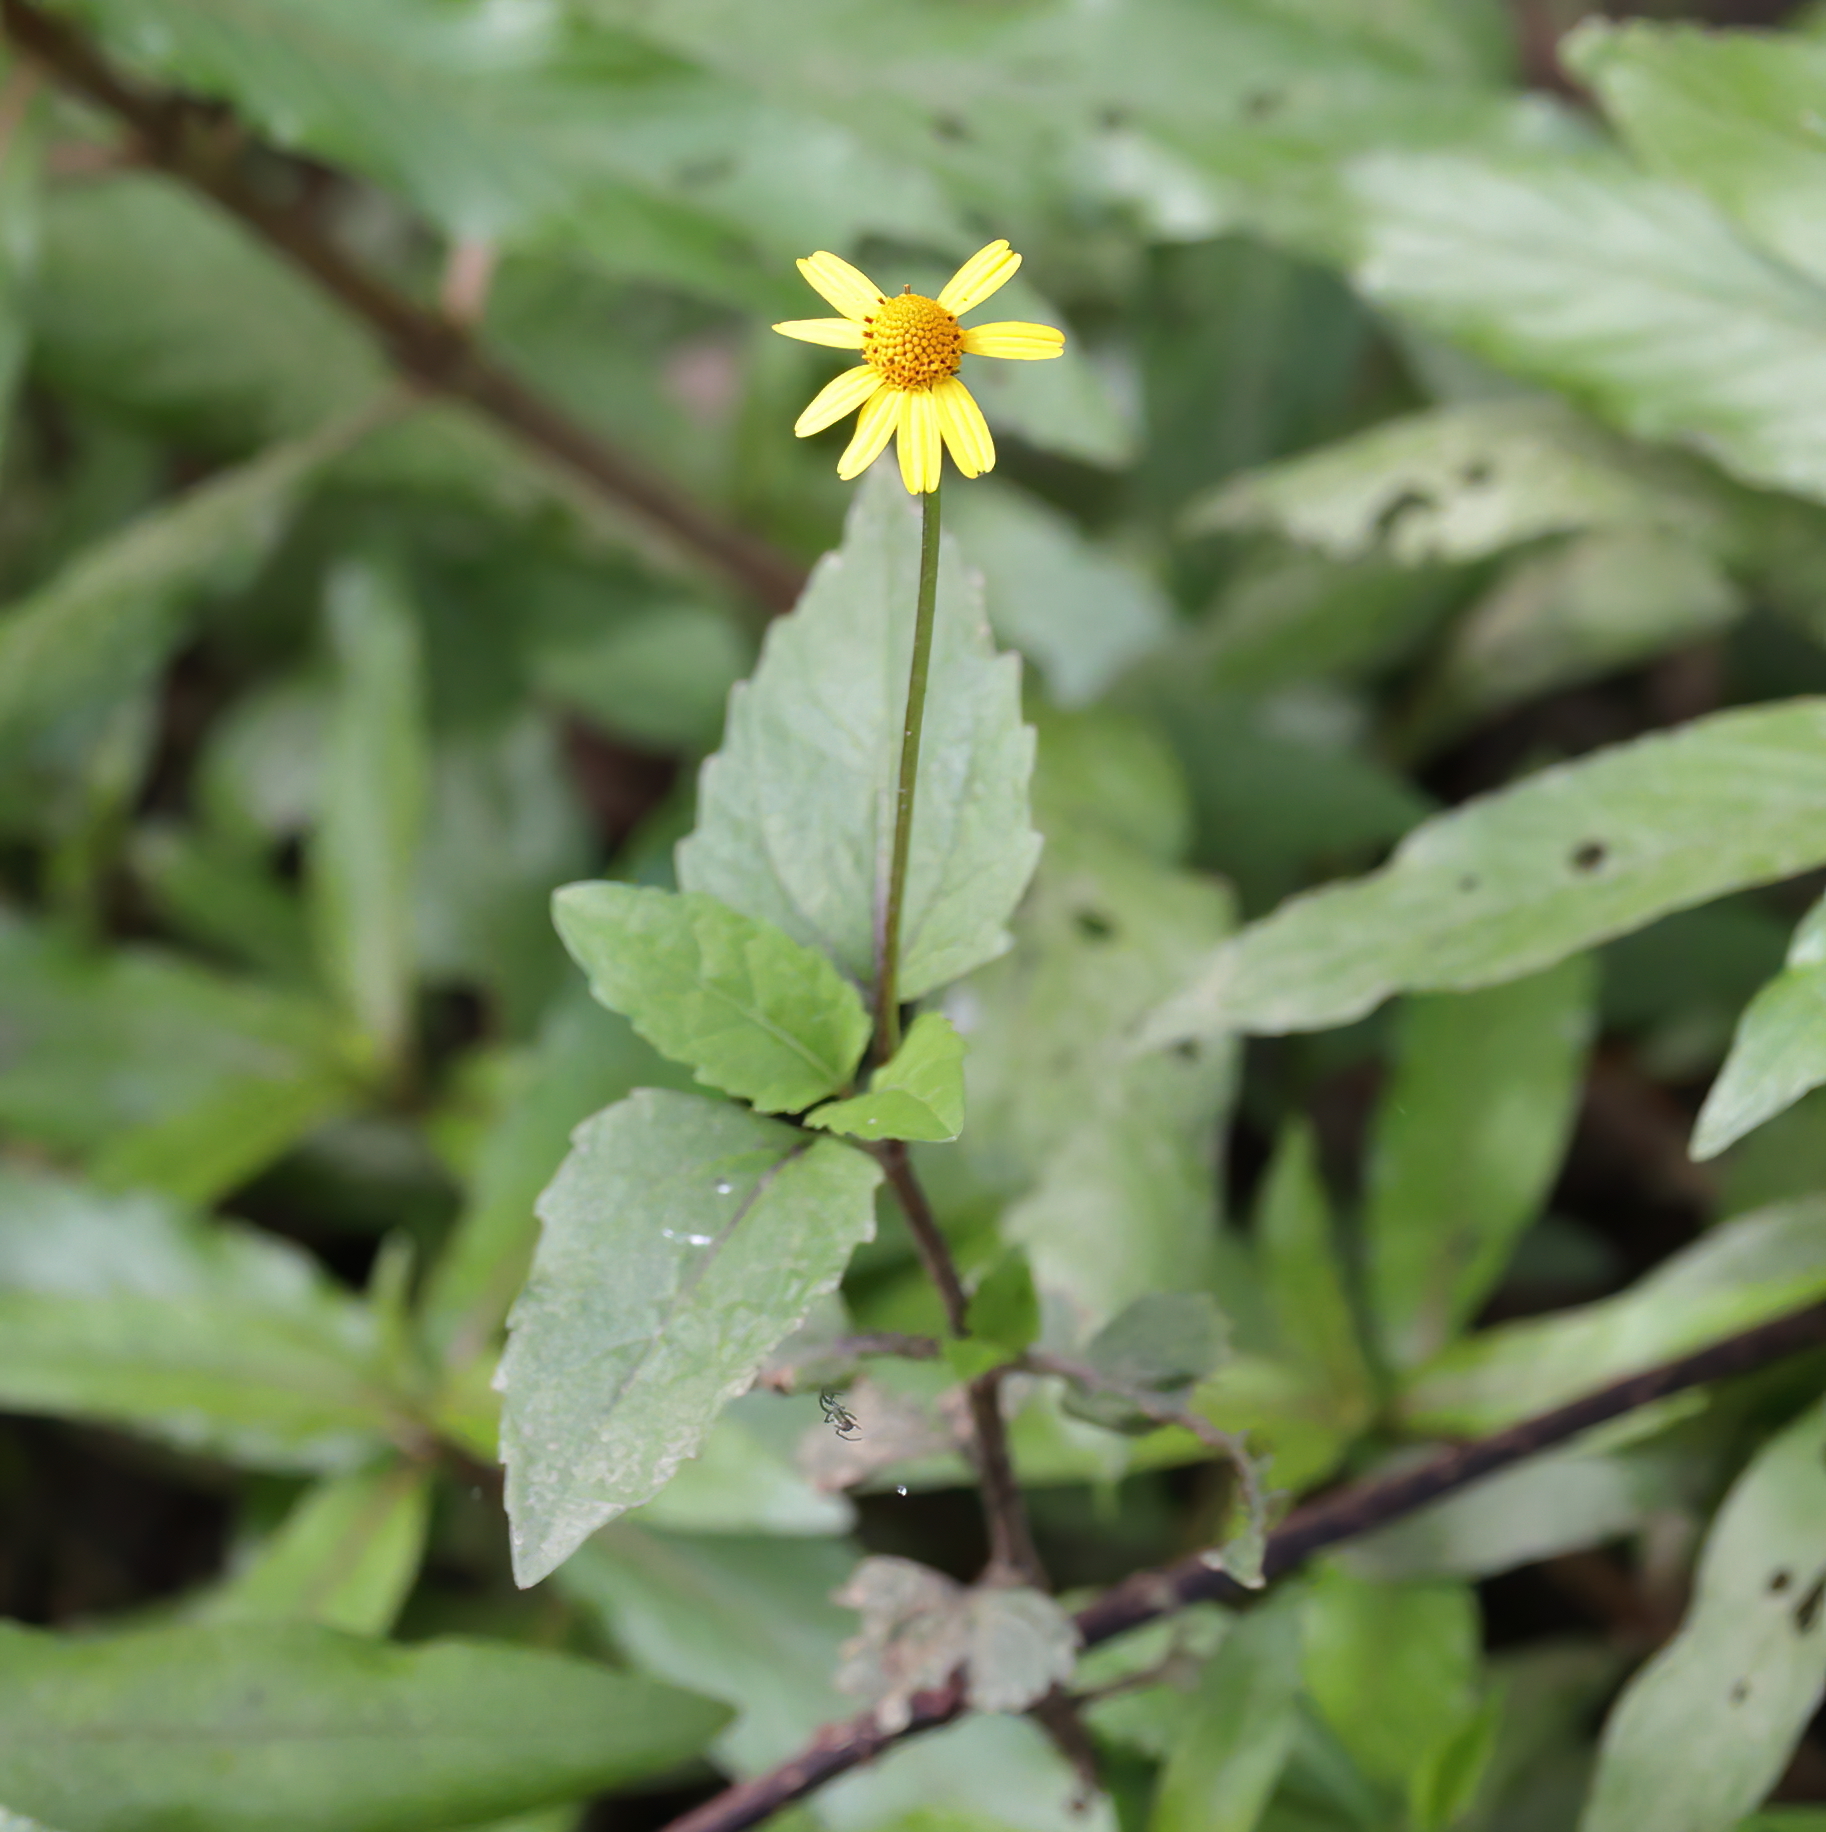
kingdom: Plantae
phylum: Tracheophyta
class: Magnoliopsida
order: Asterales
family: Asteraceae
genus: Acmella
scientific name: Acmella repens
